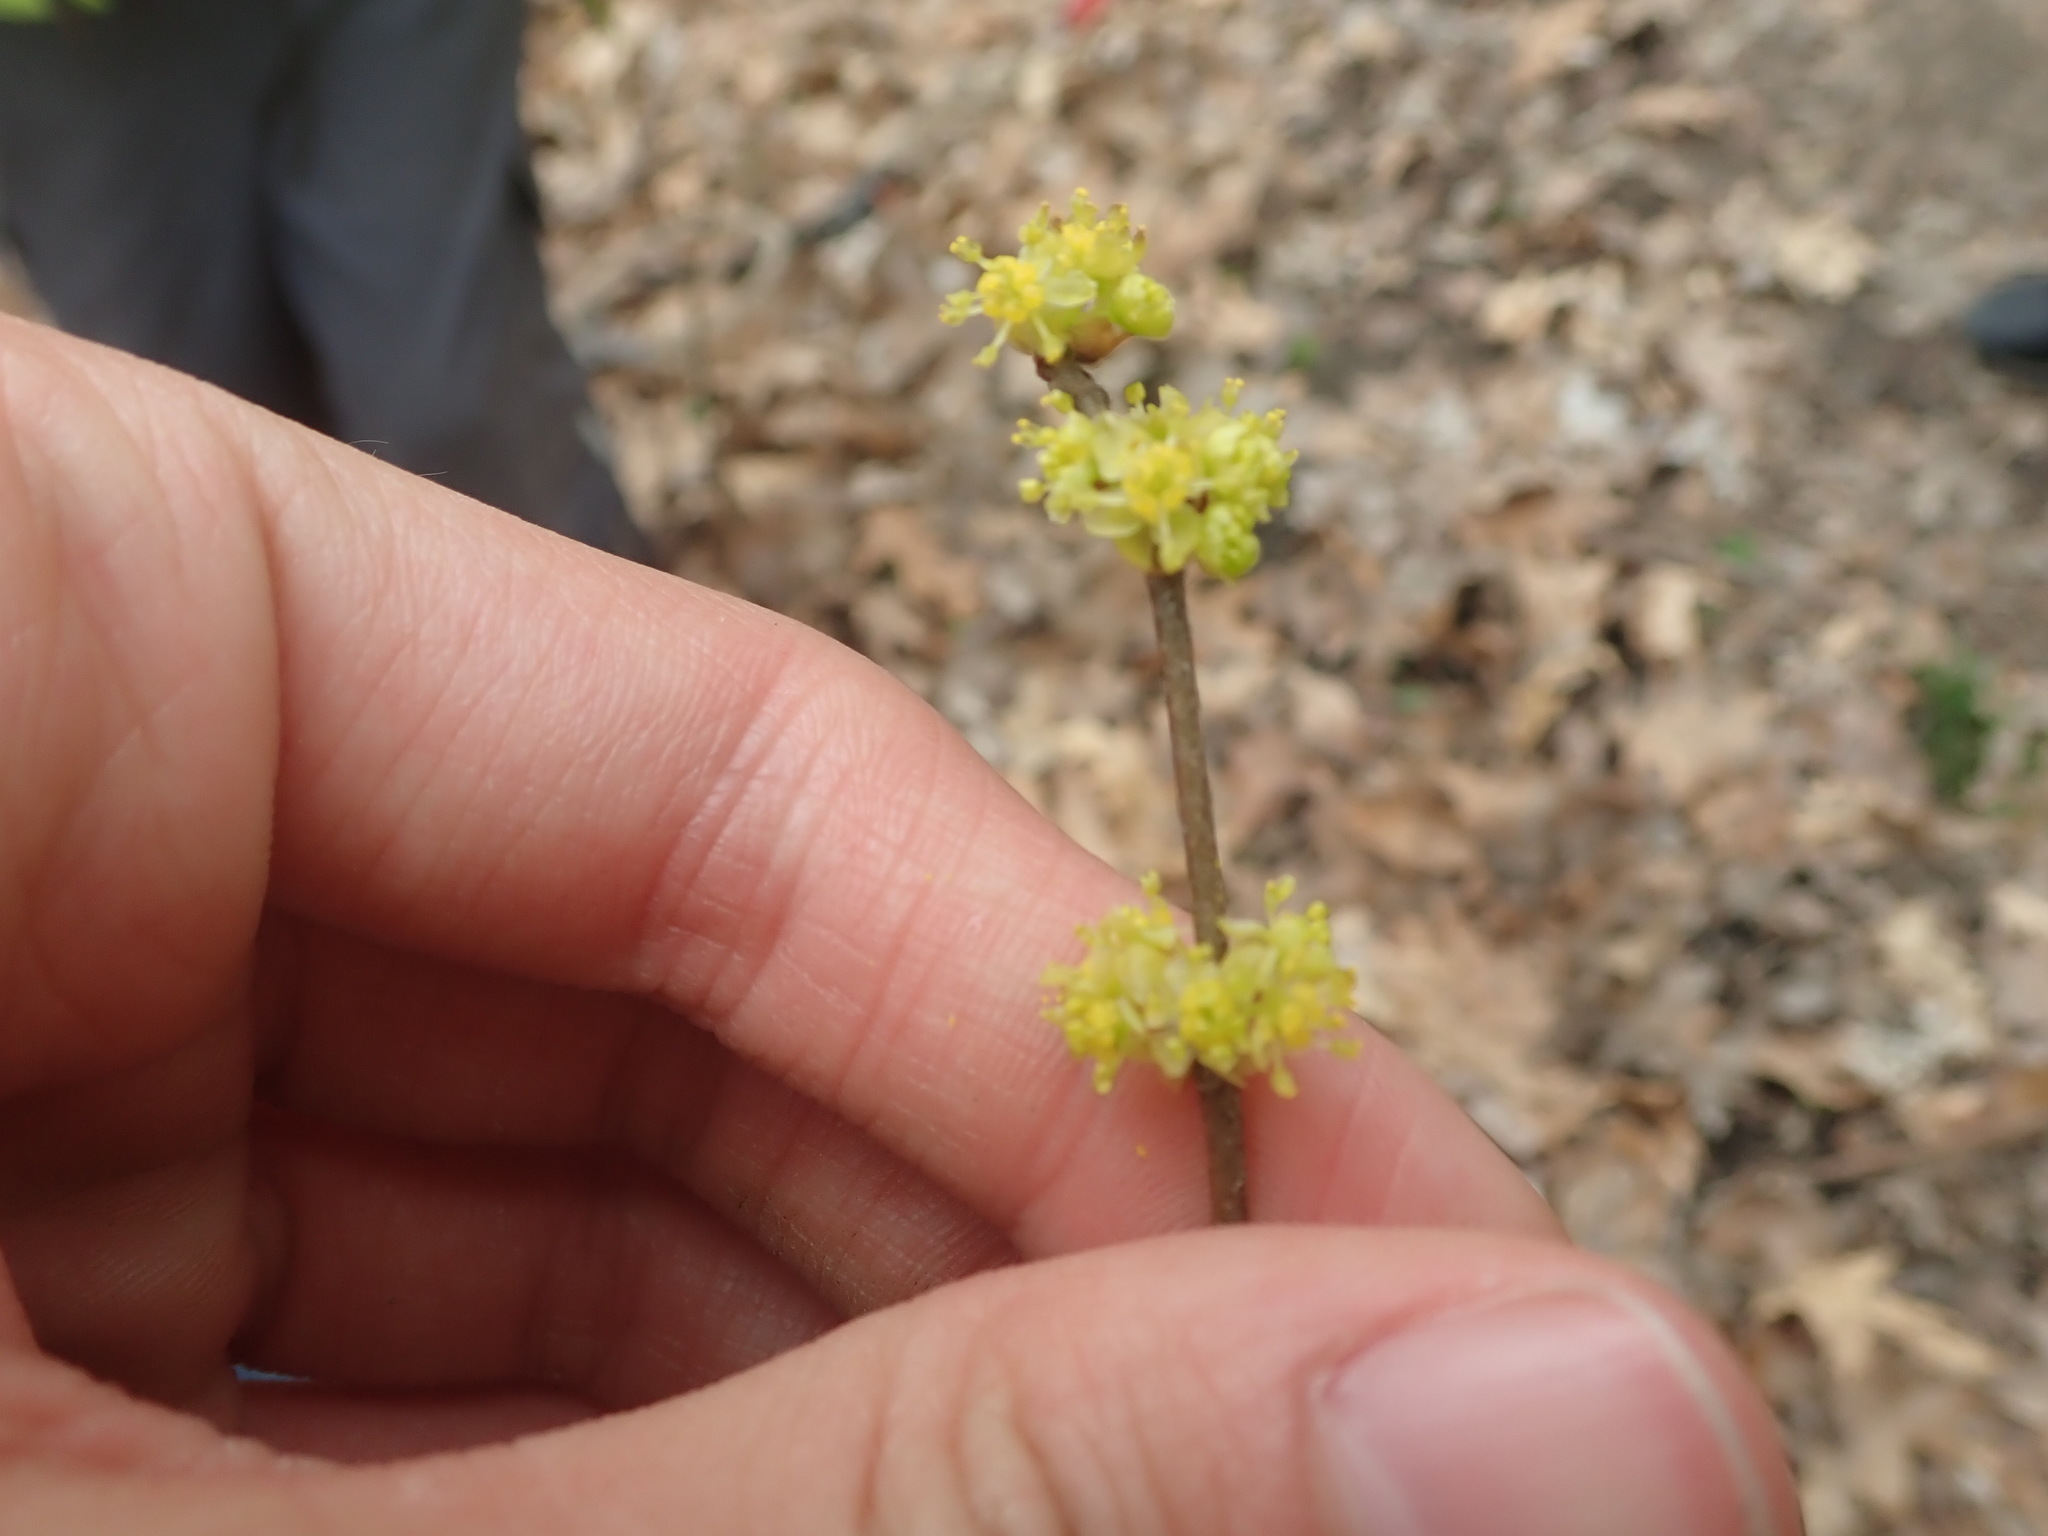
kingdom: Plantae
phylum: Tracheophyta
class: Magnoliopsida
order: Laurales
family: Lauraceae
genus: Lindera
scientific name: Lindera benzoin
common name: Spicebush
